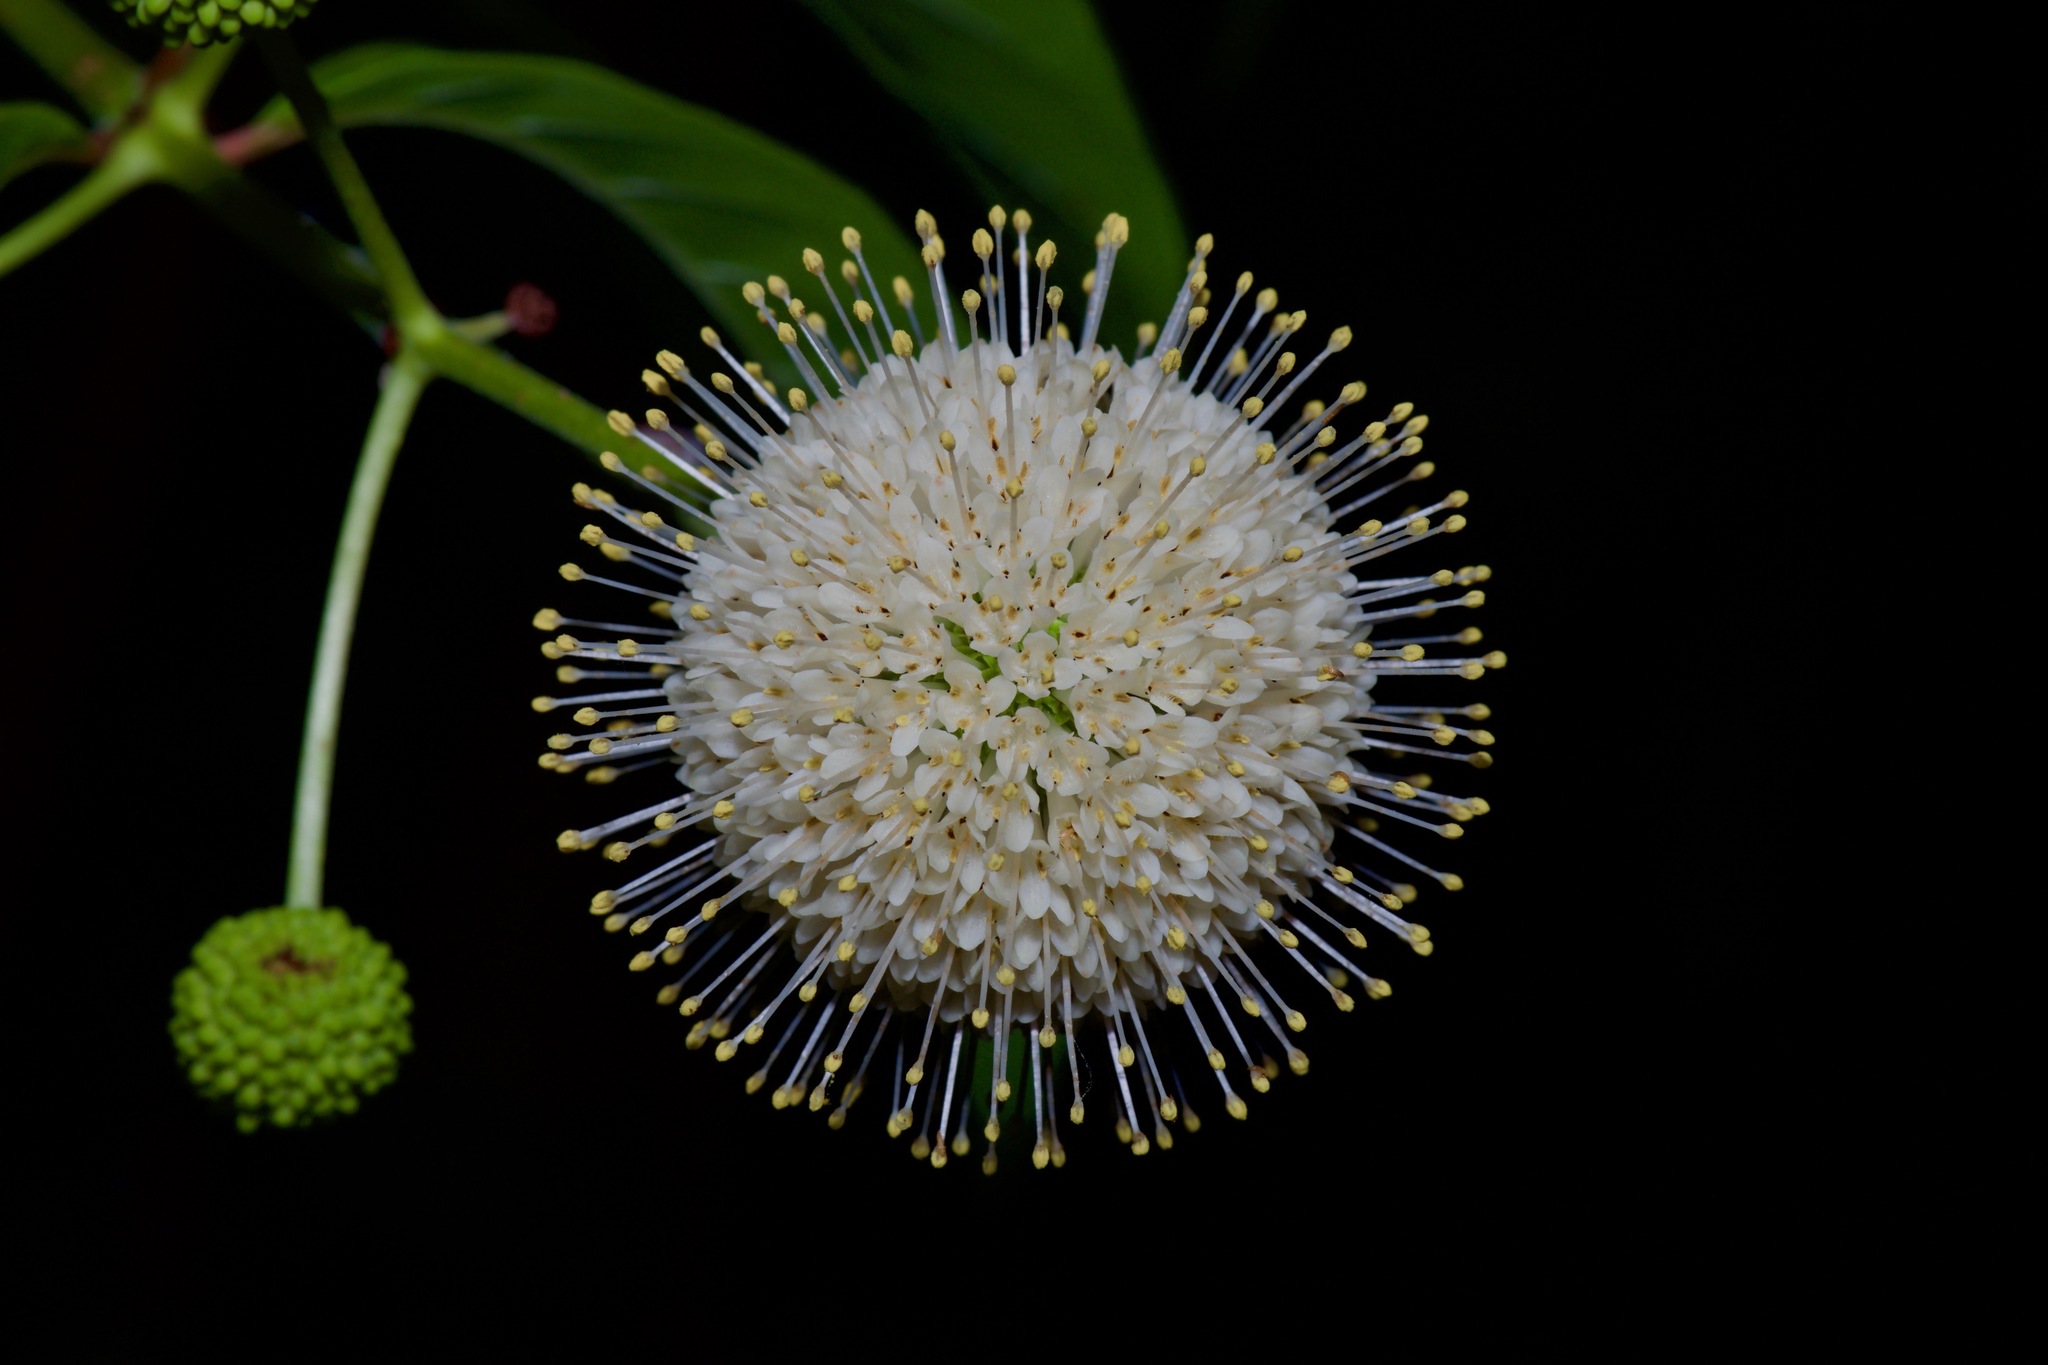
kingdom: Plantae
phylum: Tracheophyta
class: Magnoliopsida
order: Gentianales
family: Rubiaceae
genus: Cephalanthus
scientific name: Cephalanthus occidentalis
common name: Button-willow
